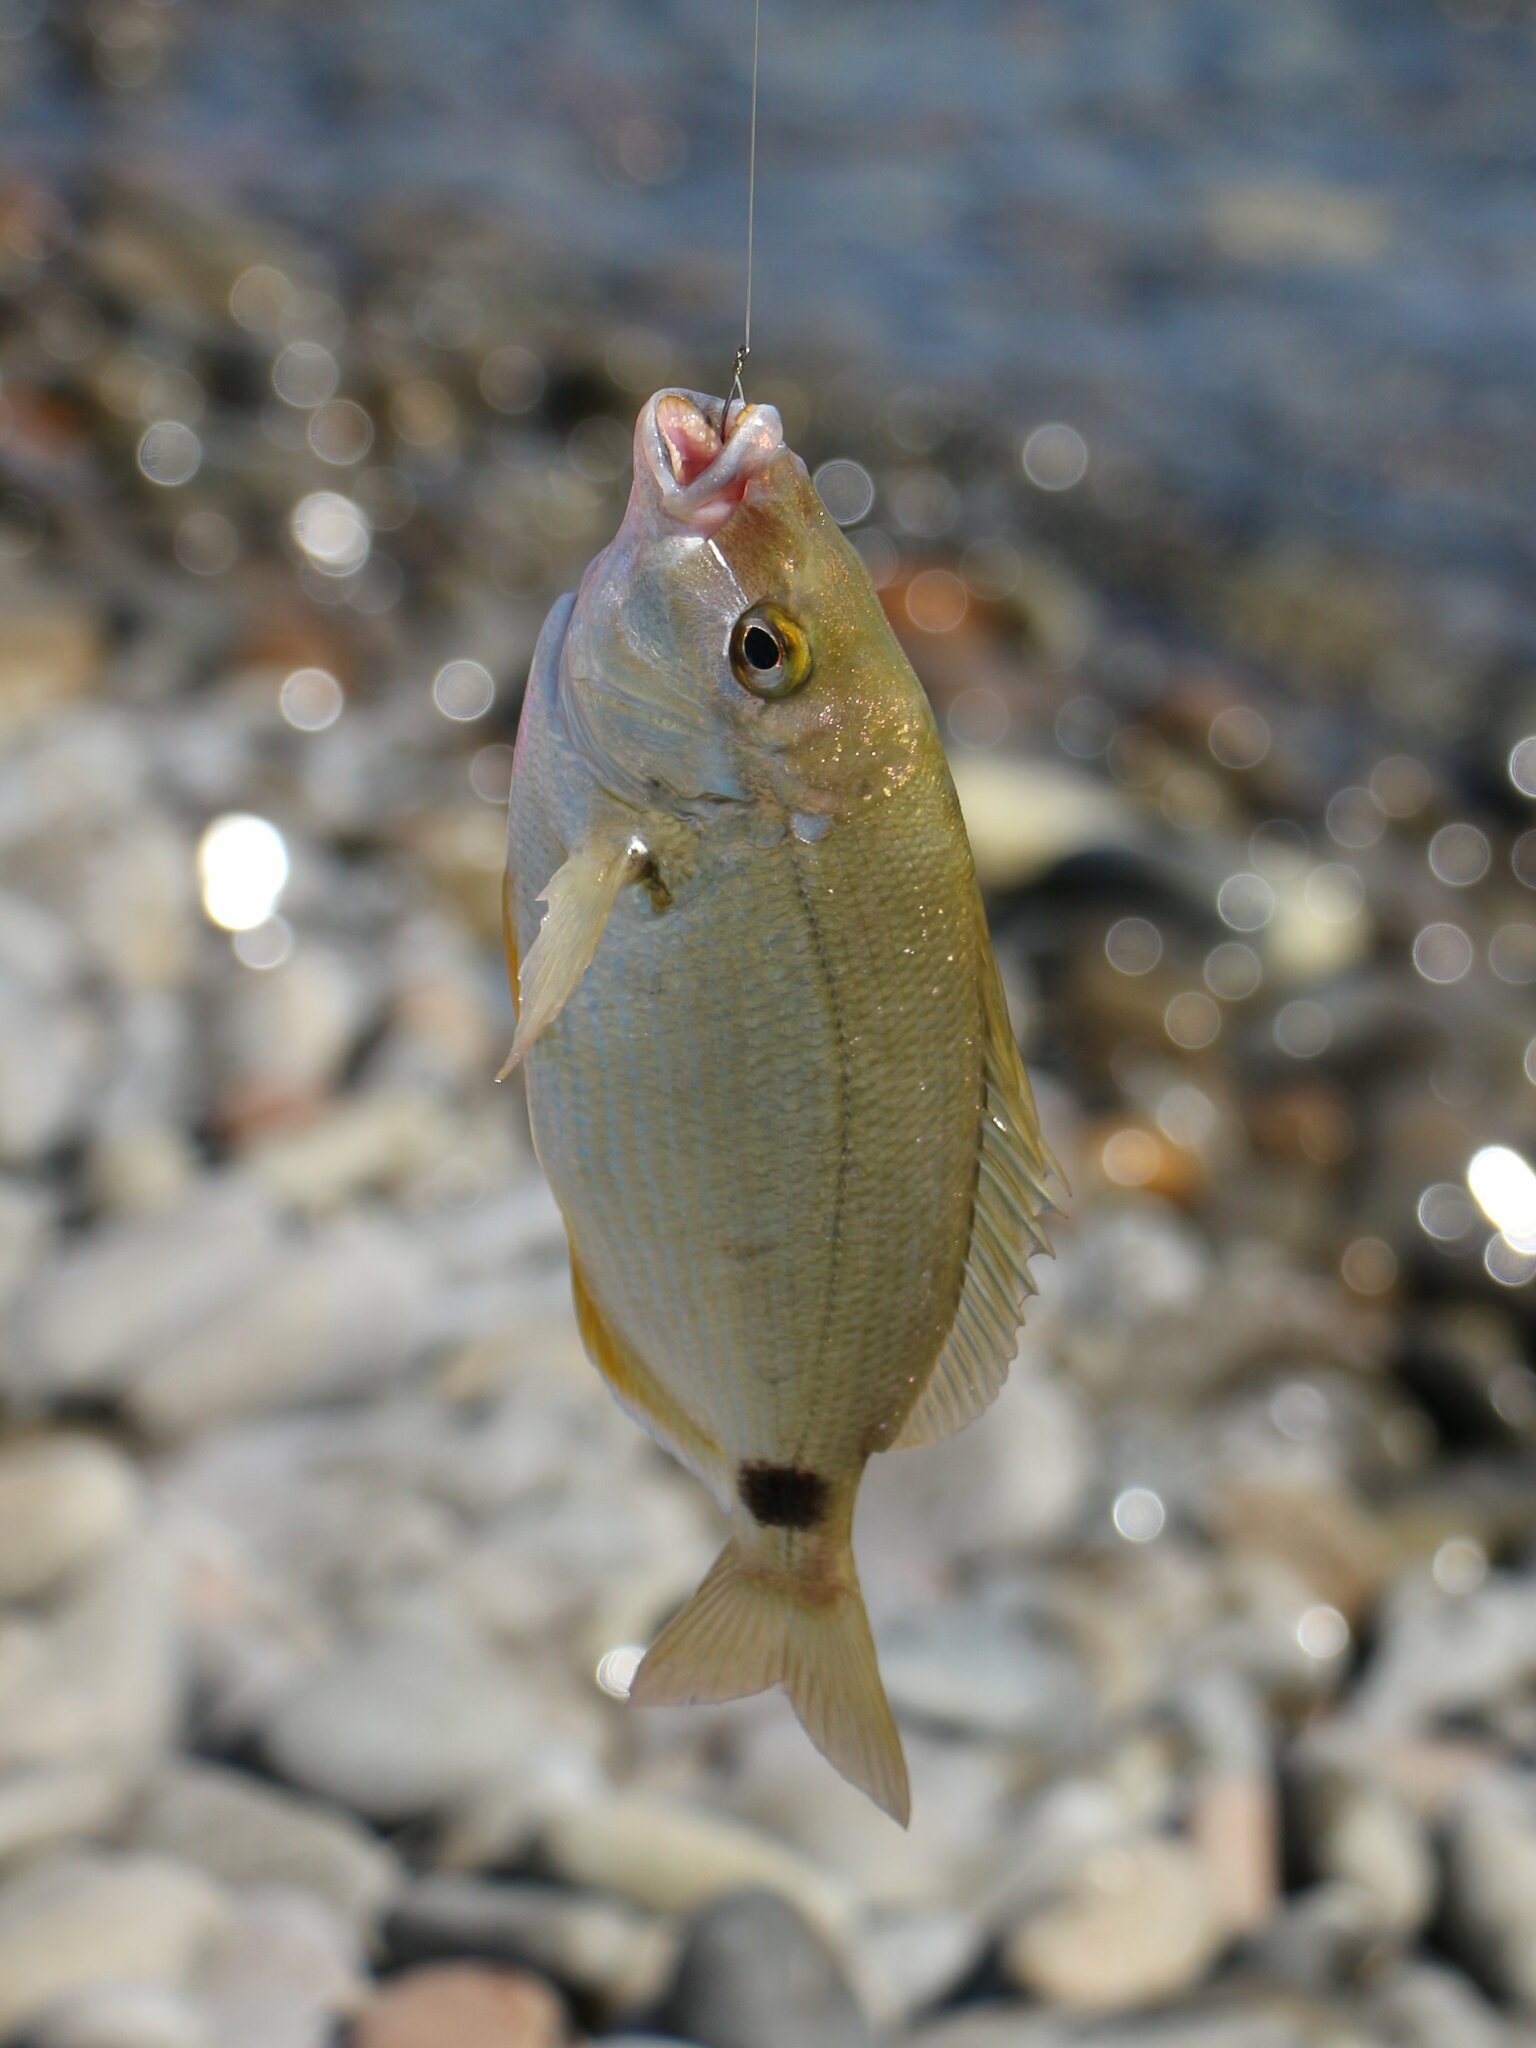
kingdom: Animalia
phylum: Chordata
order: Perciformes
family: Sparidae
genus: Diplodus
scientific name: Diplodus annularis
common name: Annular seabream
